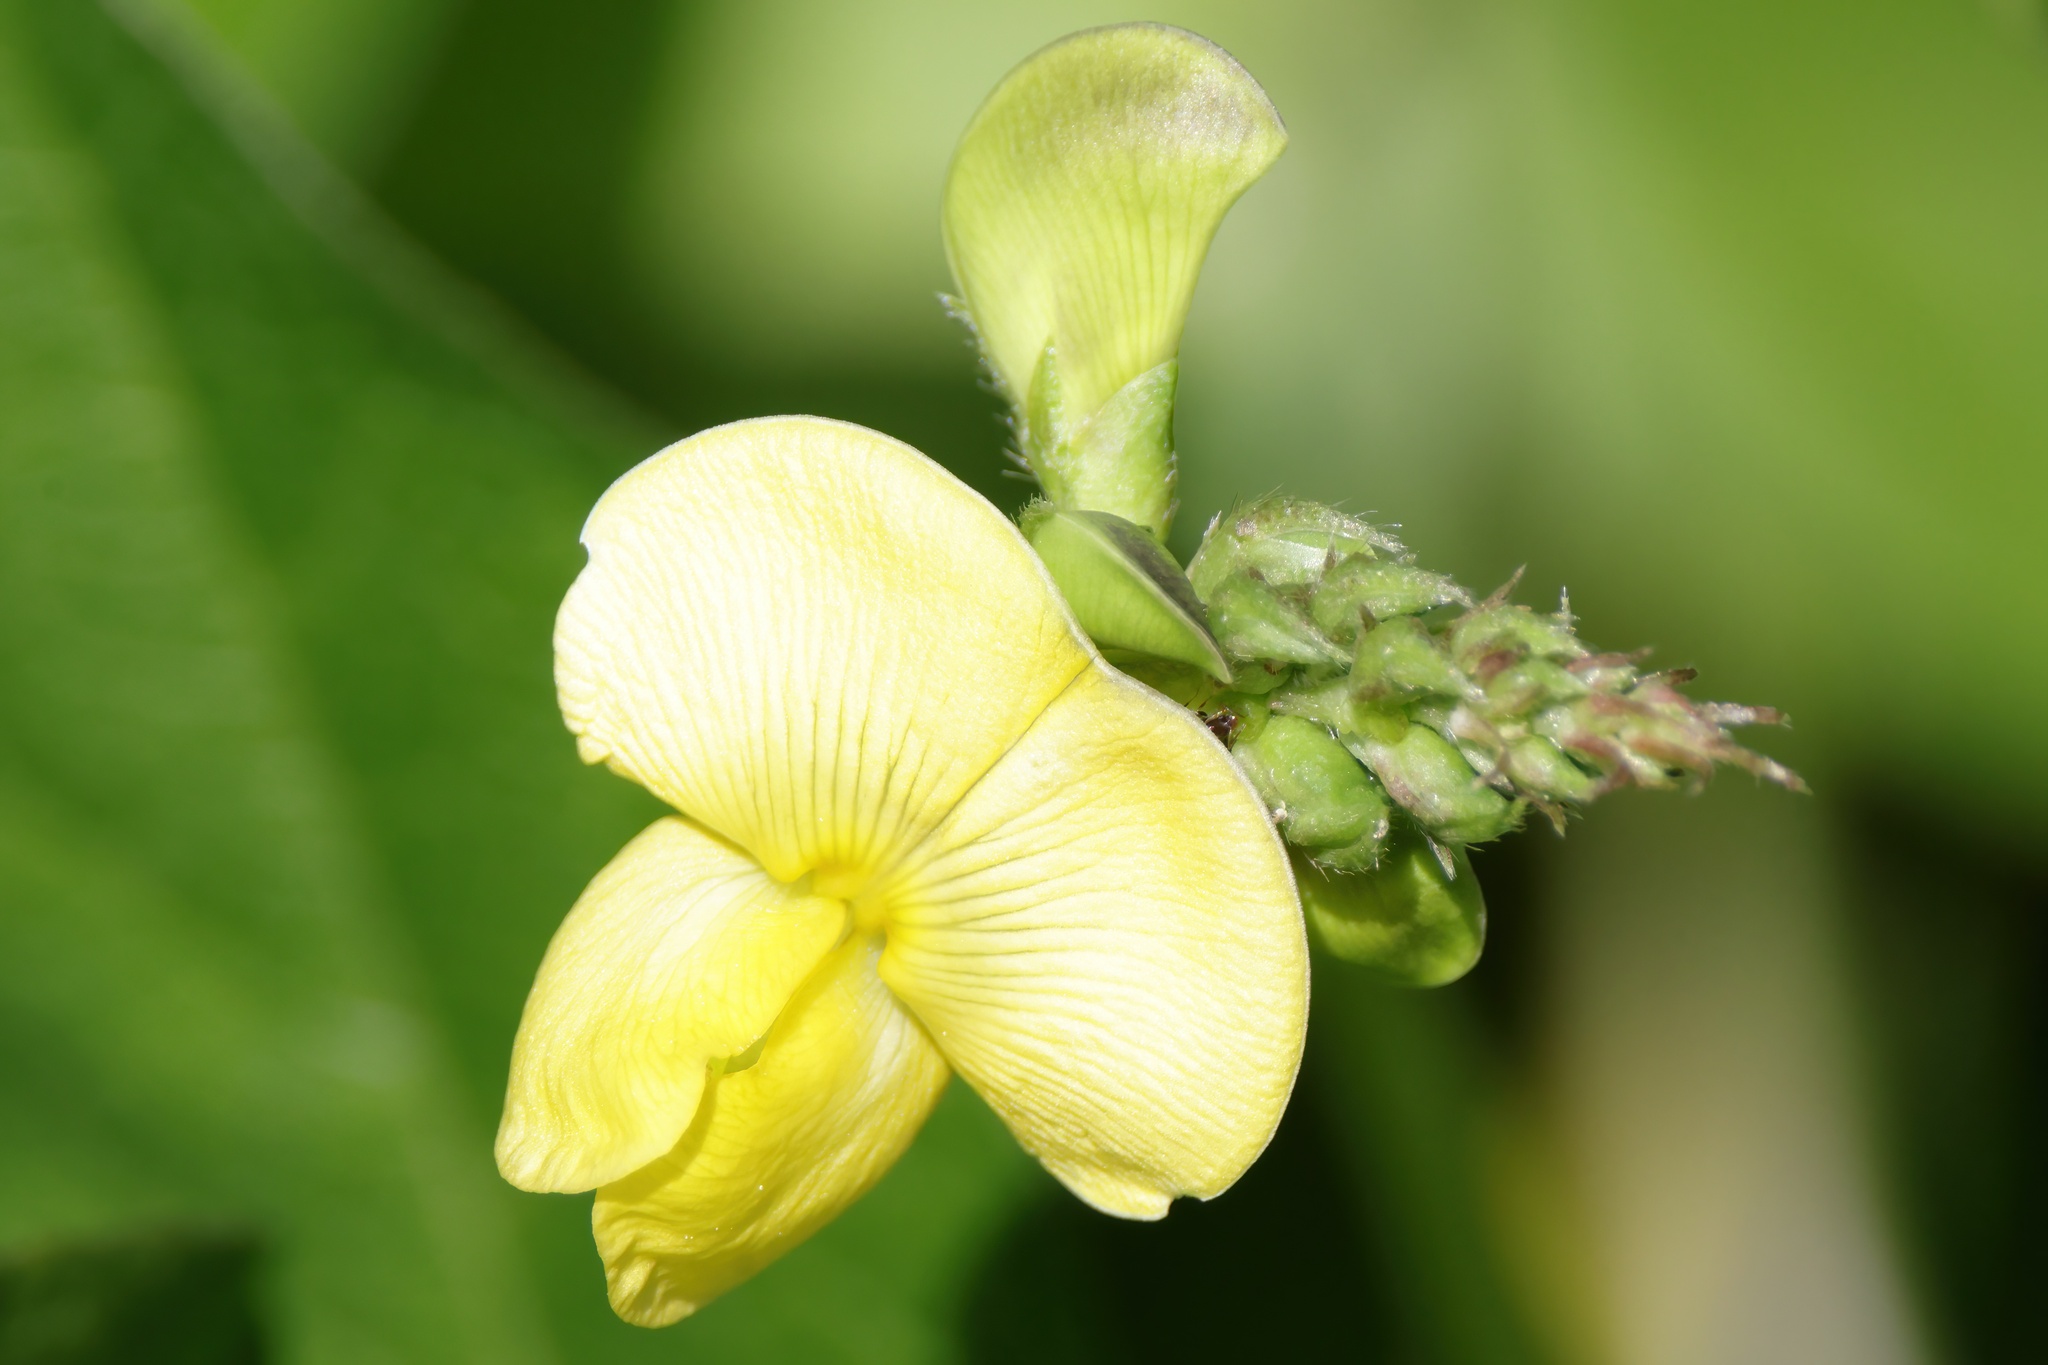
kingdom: Plantae
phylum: Tracheophyta
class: Magnoliopsida
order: Fabales
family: Fabaceae
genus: Vigna
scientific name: Vigna luteola
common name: Hairypod cowpea
